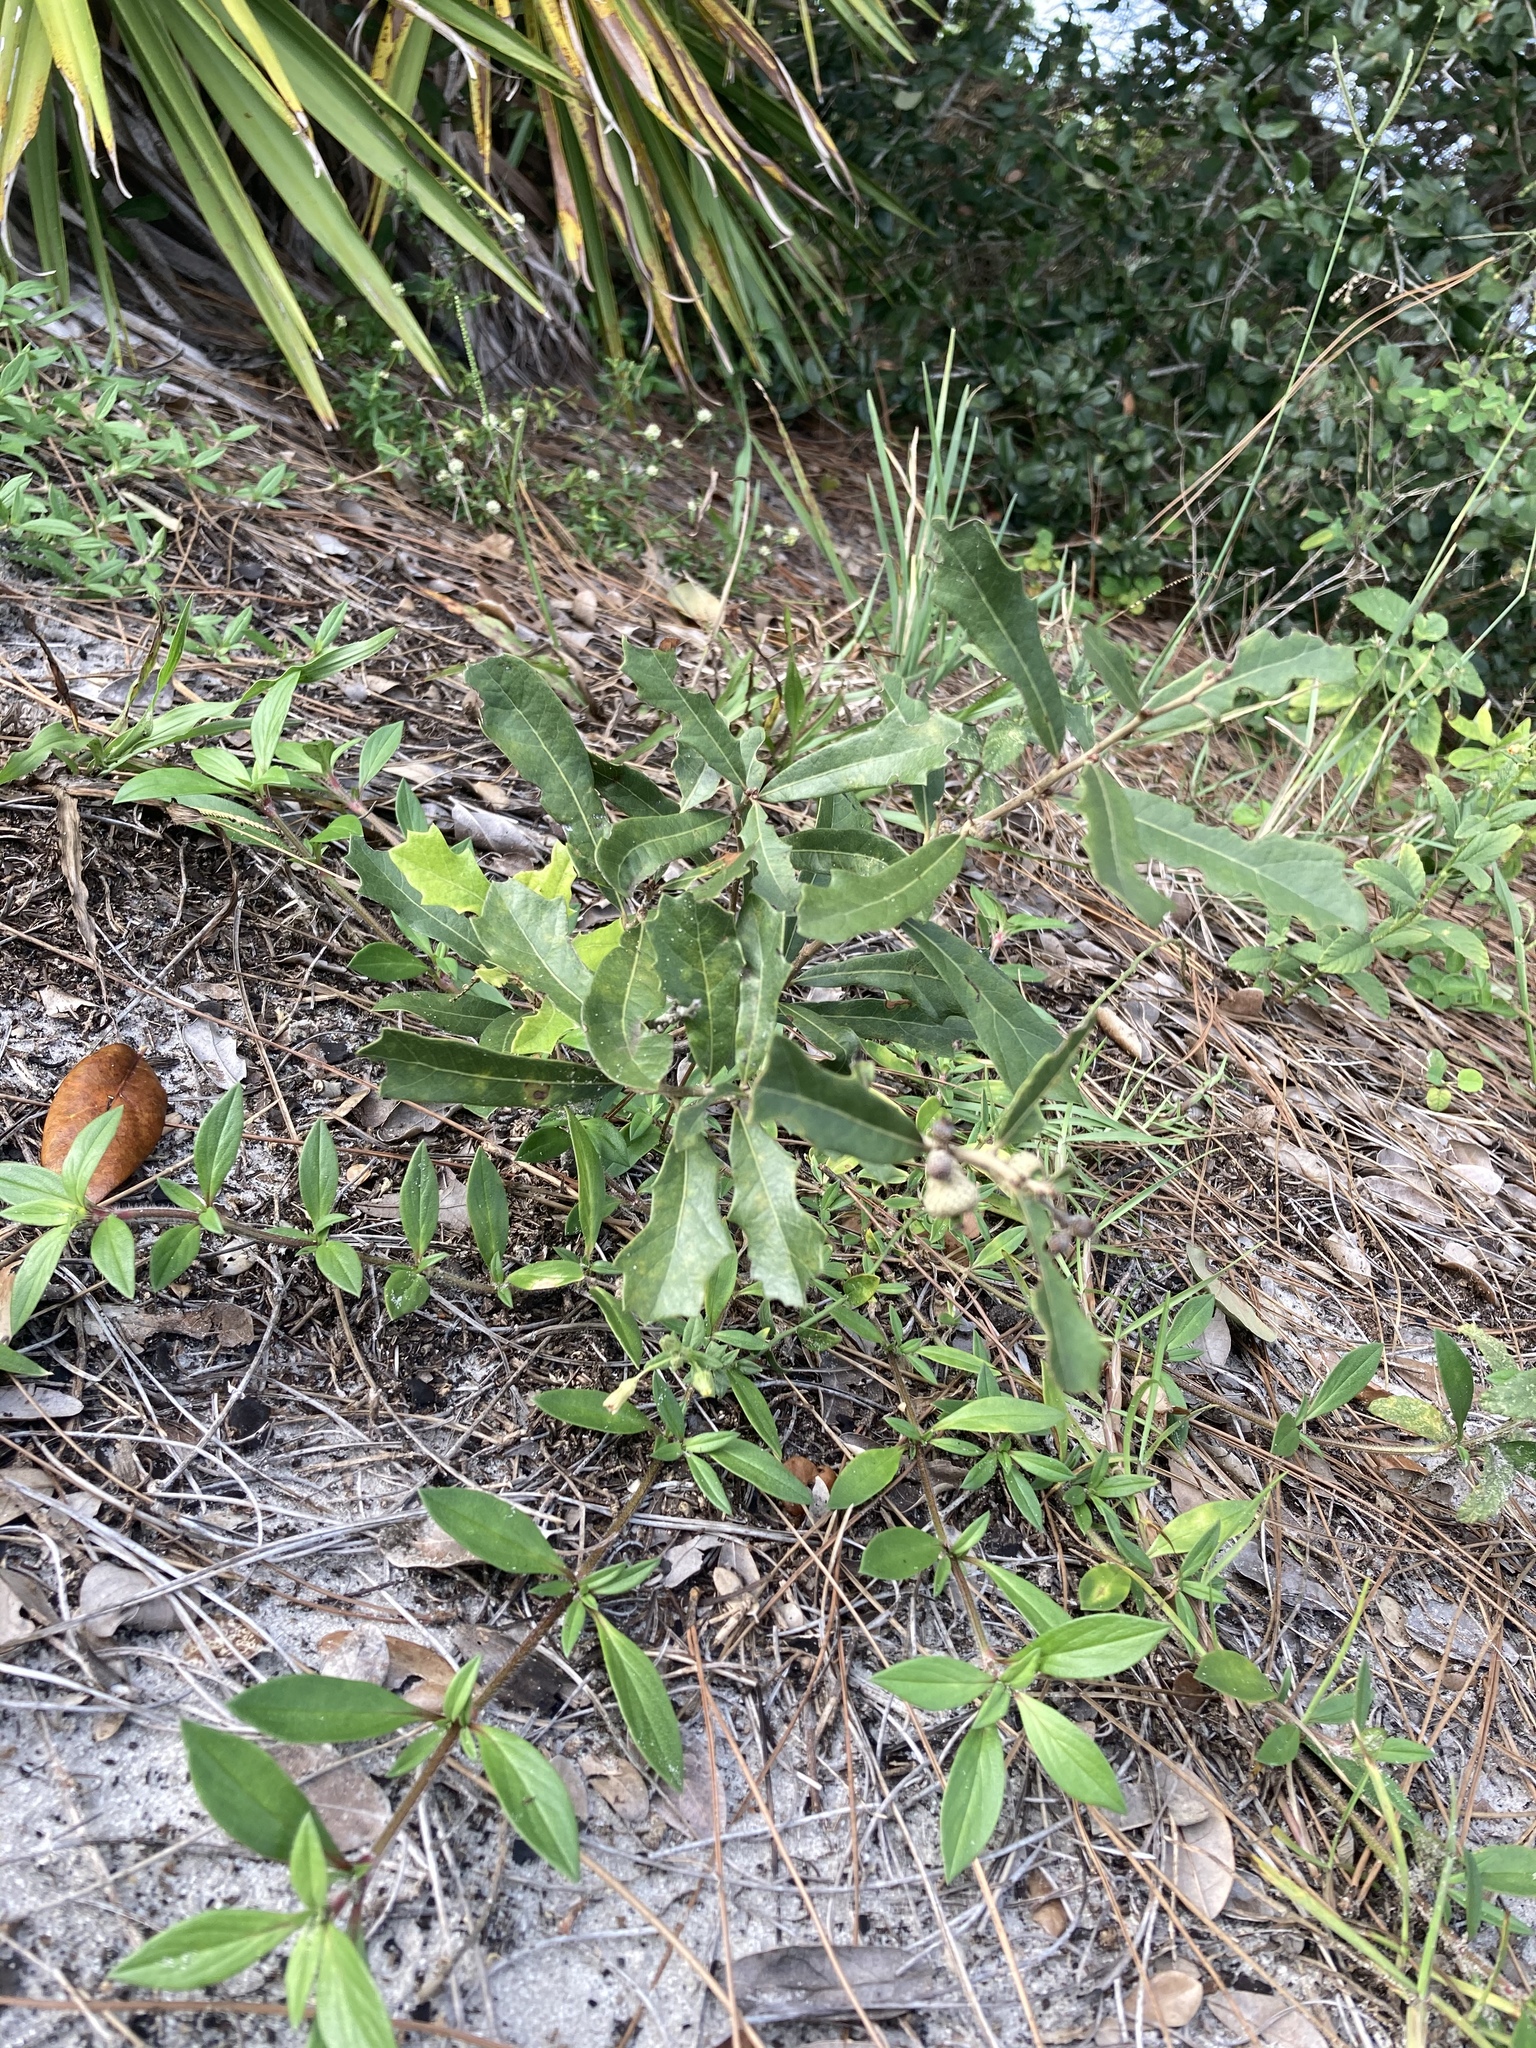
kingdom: Plantae
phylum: Tracheophyta
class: Magnoliopsida
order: Fagales
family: Fagaceae
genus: Quercus
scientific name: Quercus minima
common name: Dwarf live oak
